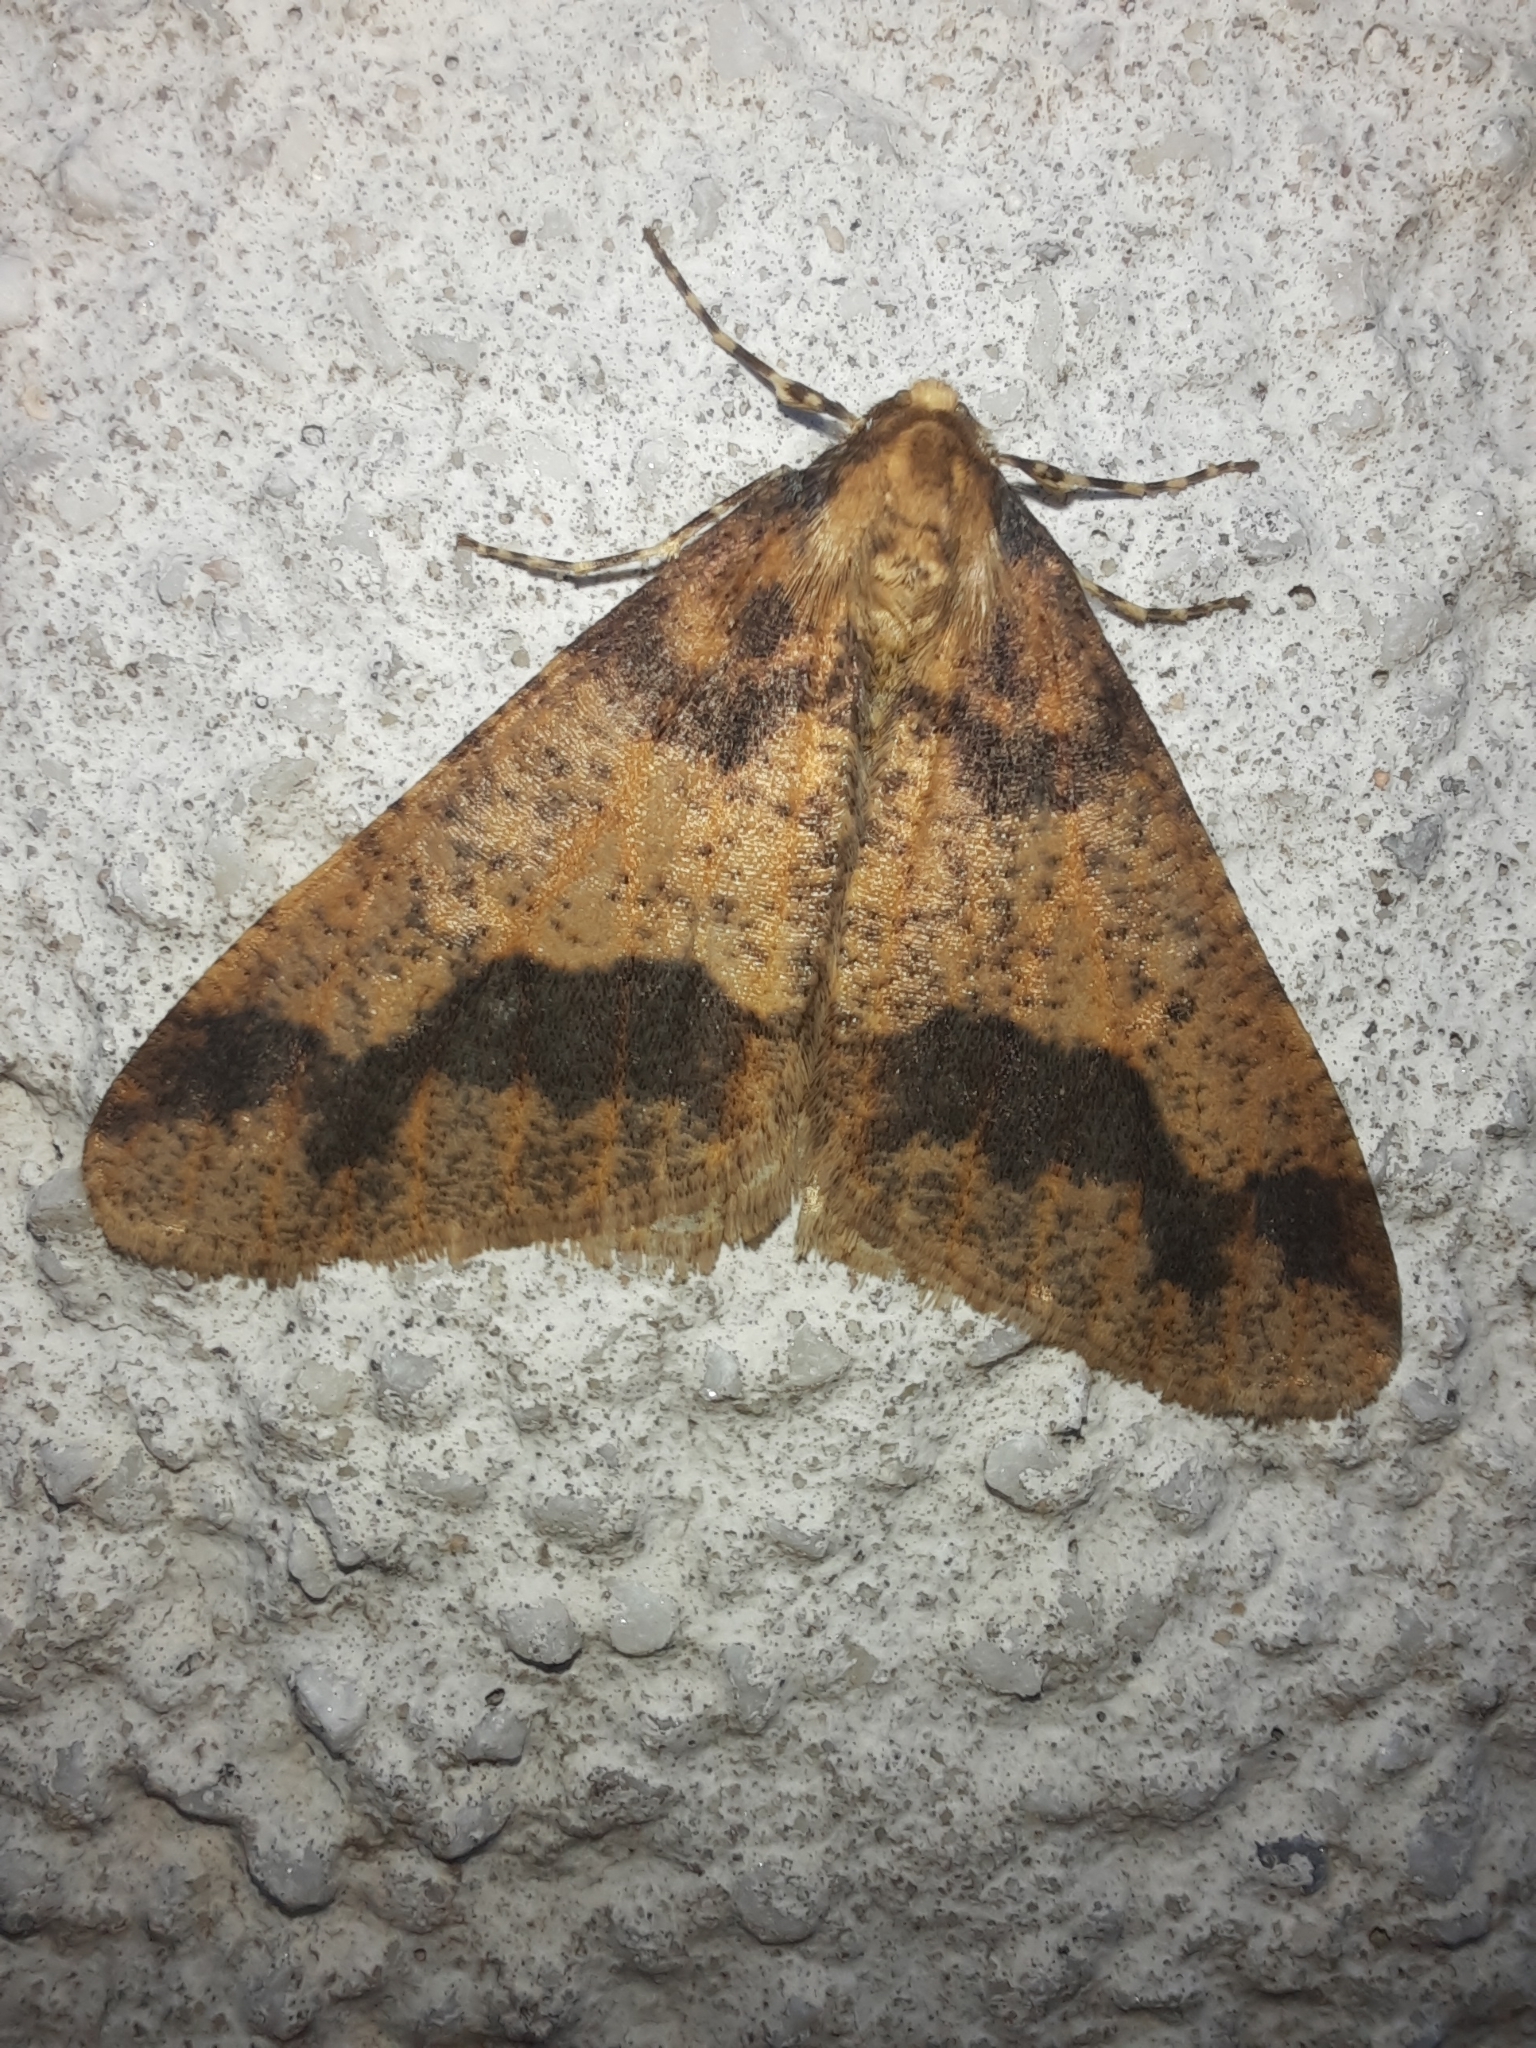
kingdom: Animalia
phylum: Arthropoda
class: Insecta
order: Lepidoptera
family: Geometridae
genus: Erannis
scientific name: Erannis defoliaria
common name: Mottled umber
